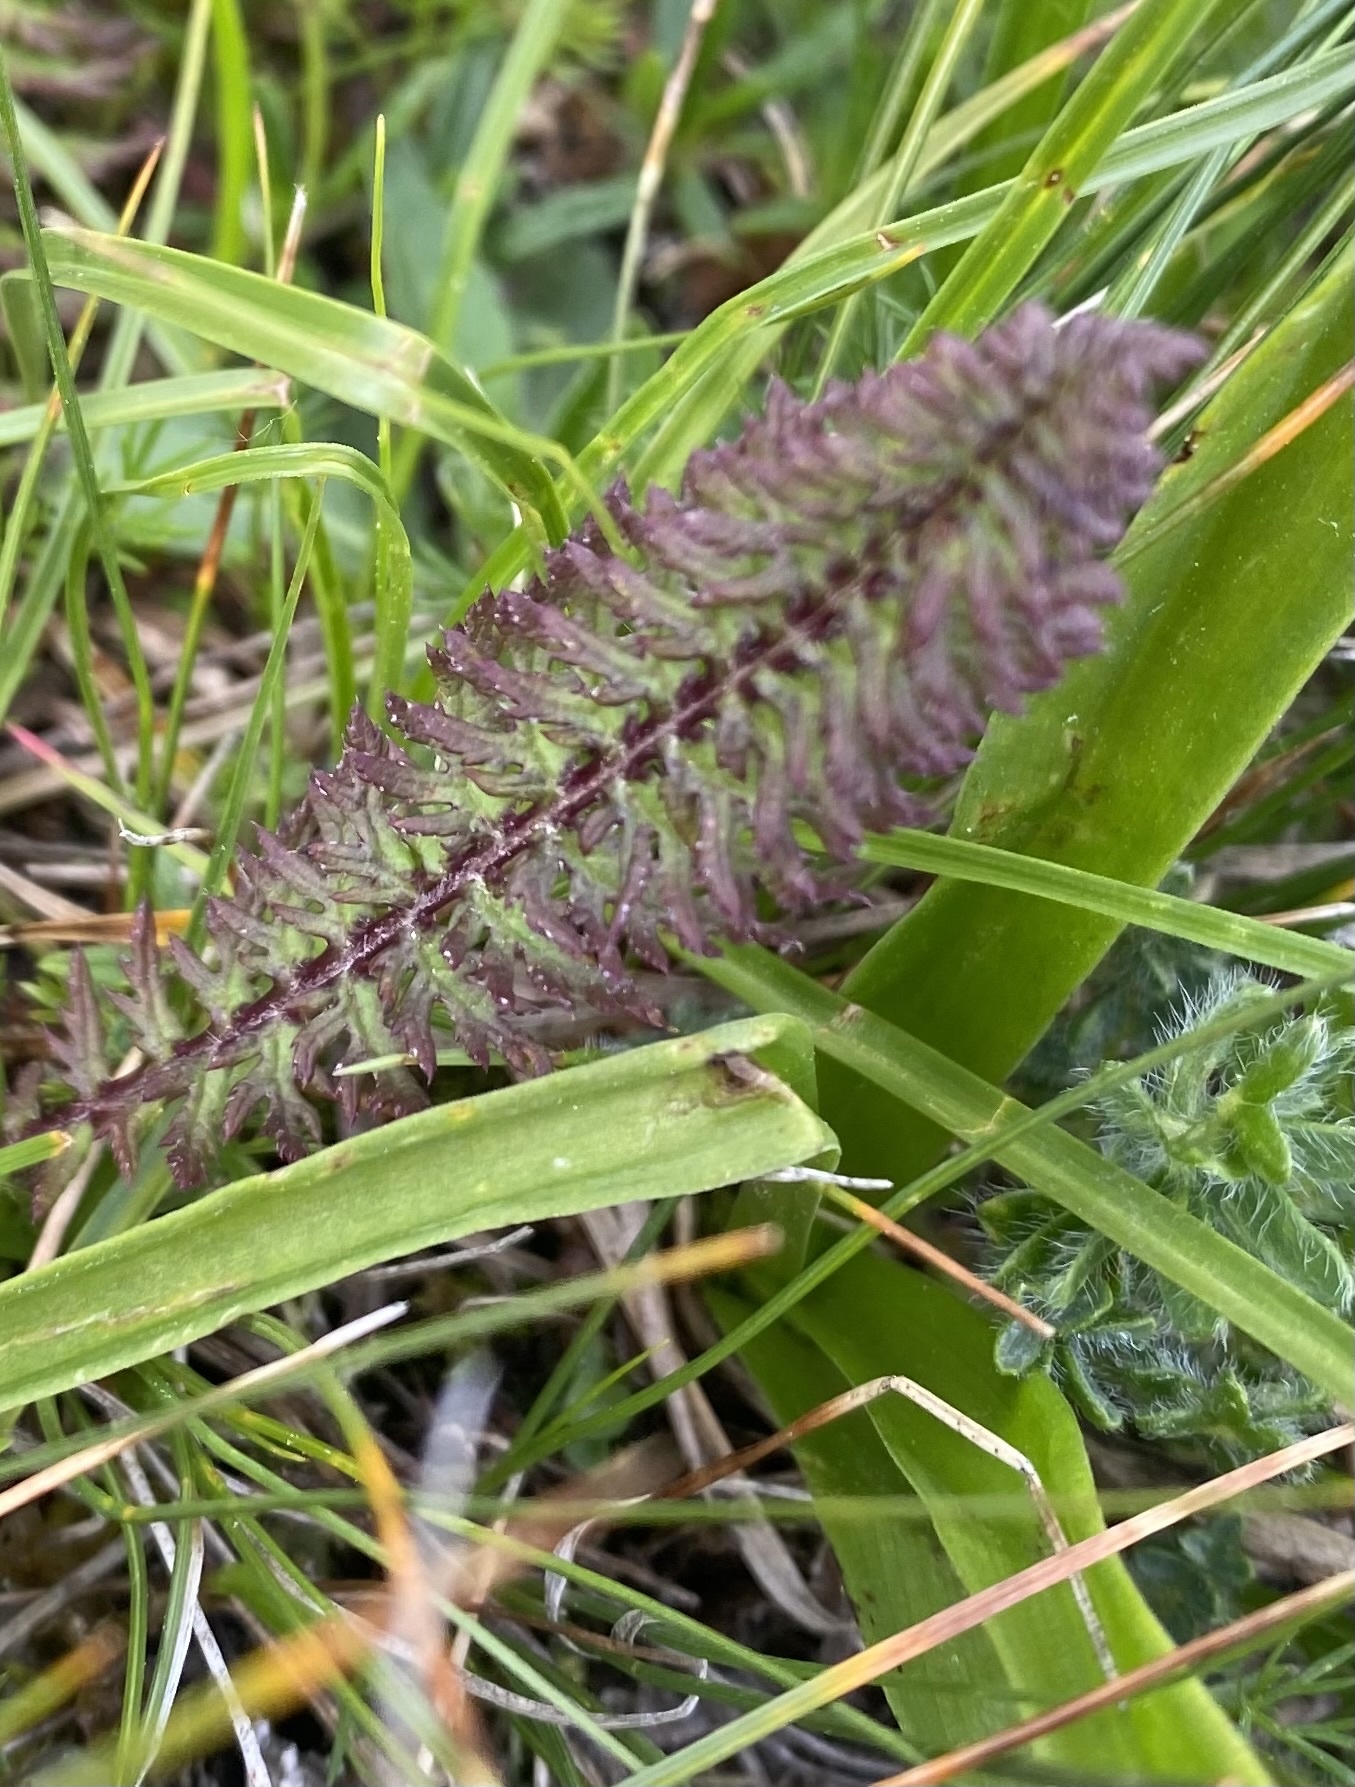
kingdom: Plantae
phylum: Tracheophyta
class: Magnoliopsida
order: Lamiales
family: Orobanchaceae
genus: Pedicularis
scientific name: Pedicularis condensata
